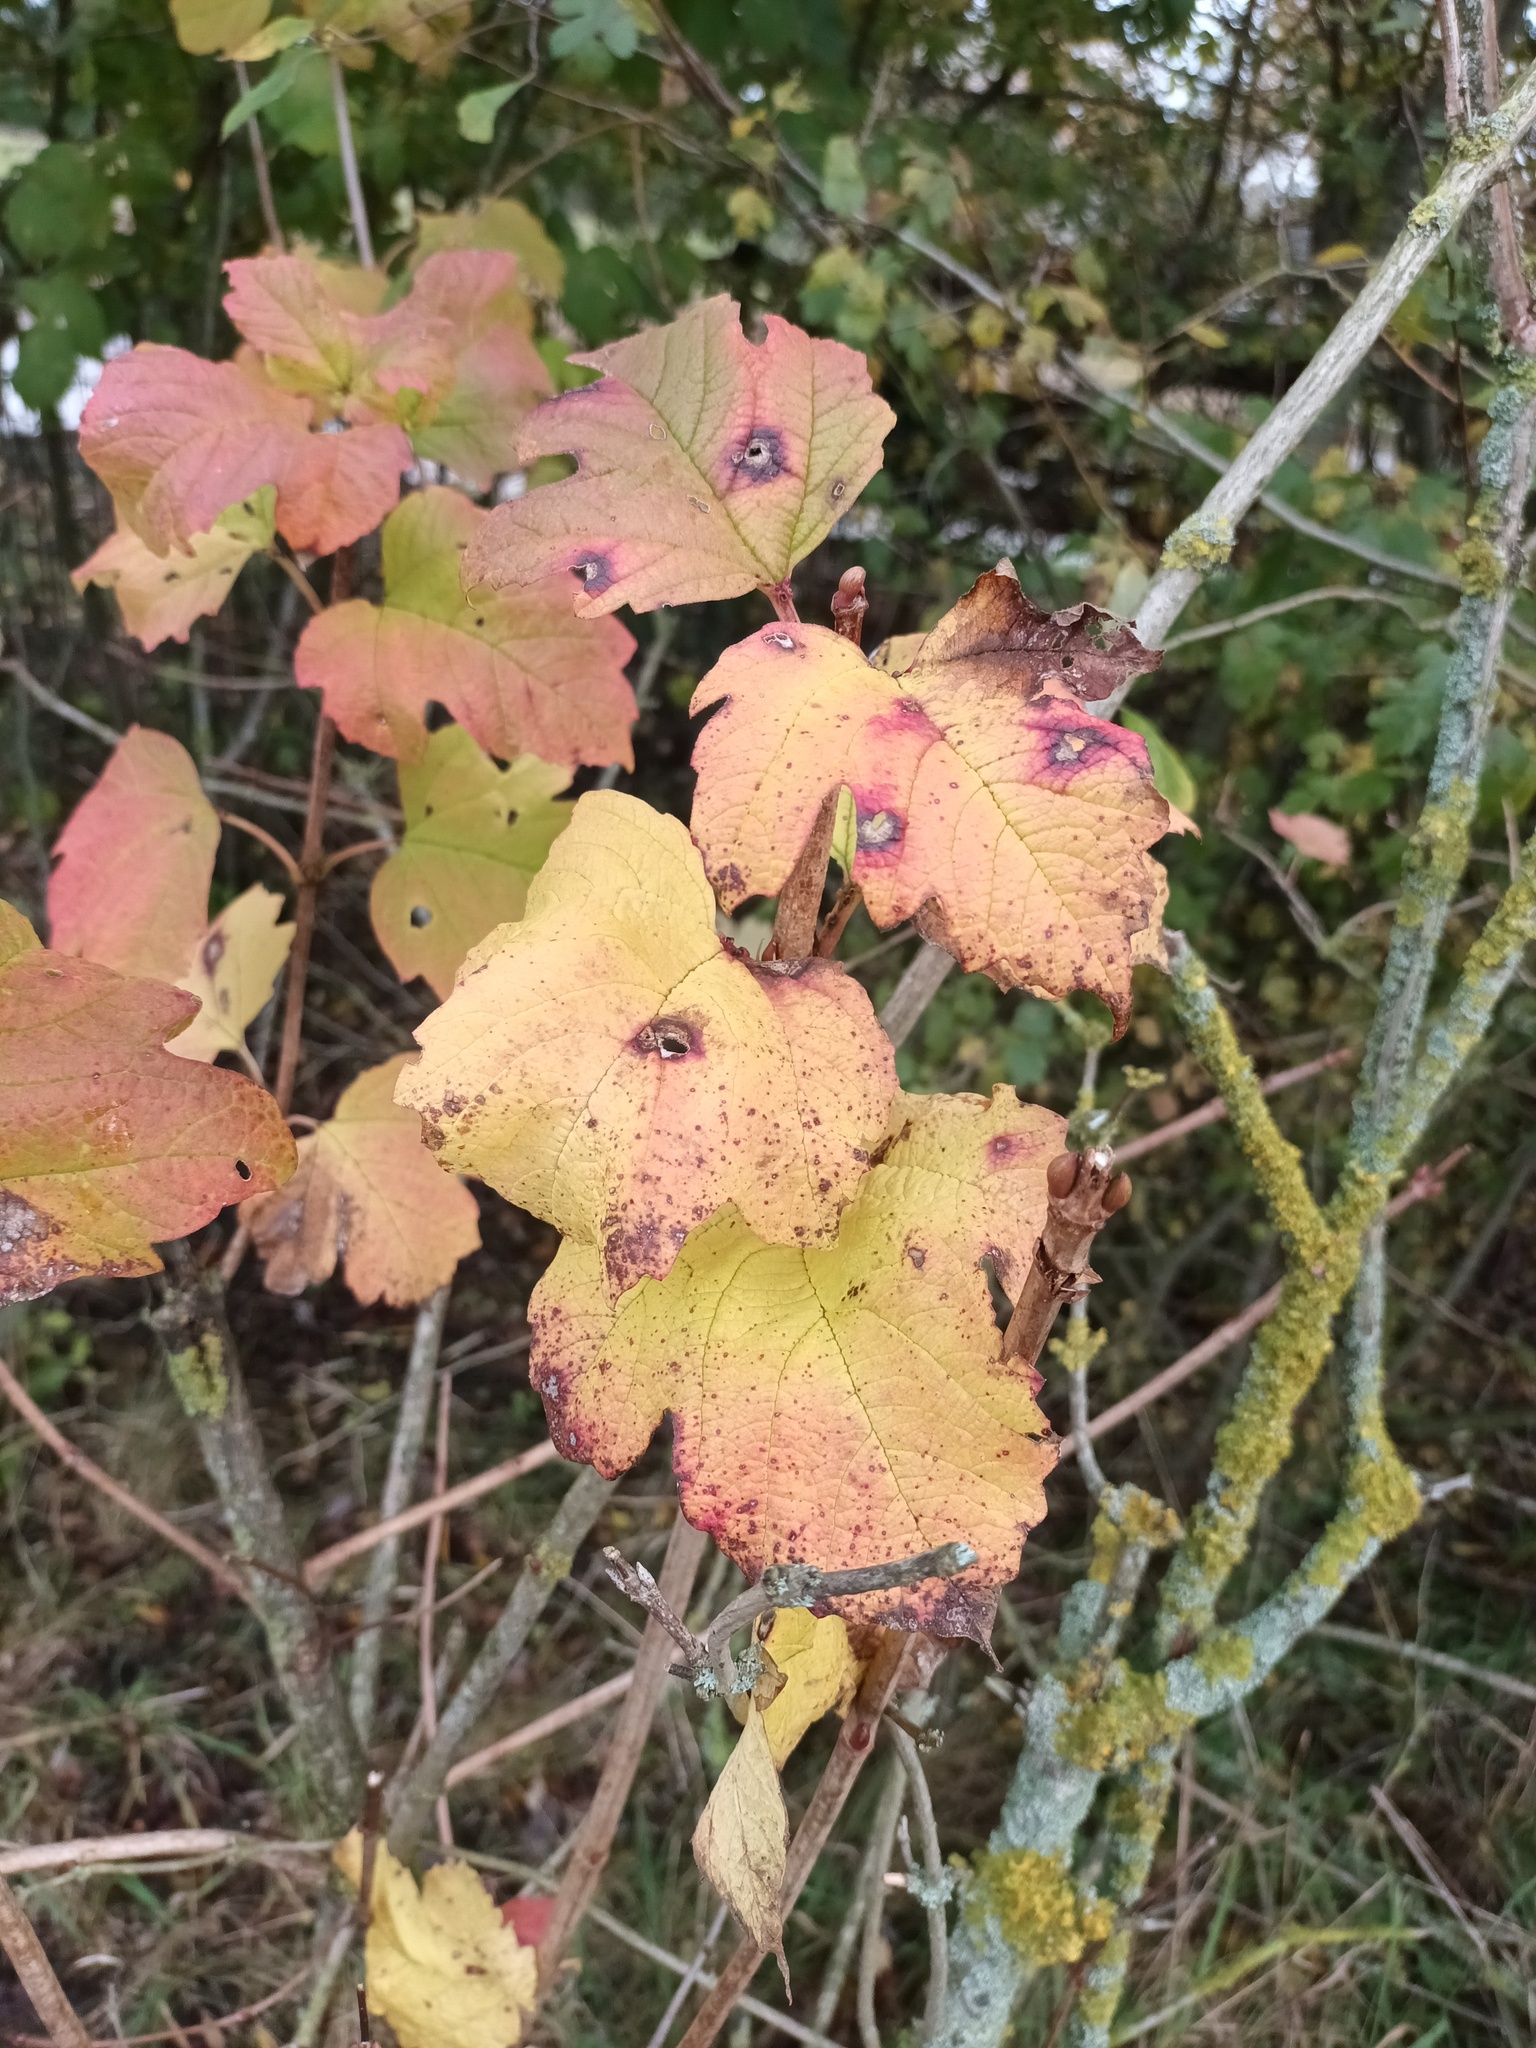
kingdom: Plantae
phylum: Tracheophyta
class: Magnoliopsida
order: Dipsacales
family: Viburnaceae
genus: Viburnum
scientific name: Viburnum opulus
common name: Guelder-rose
